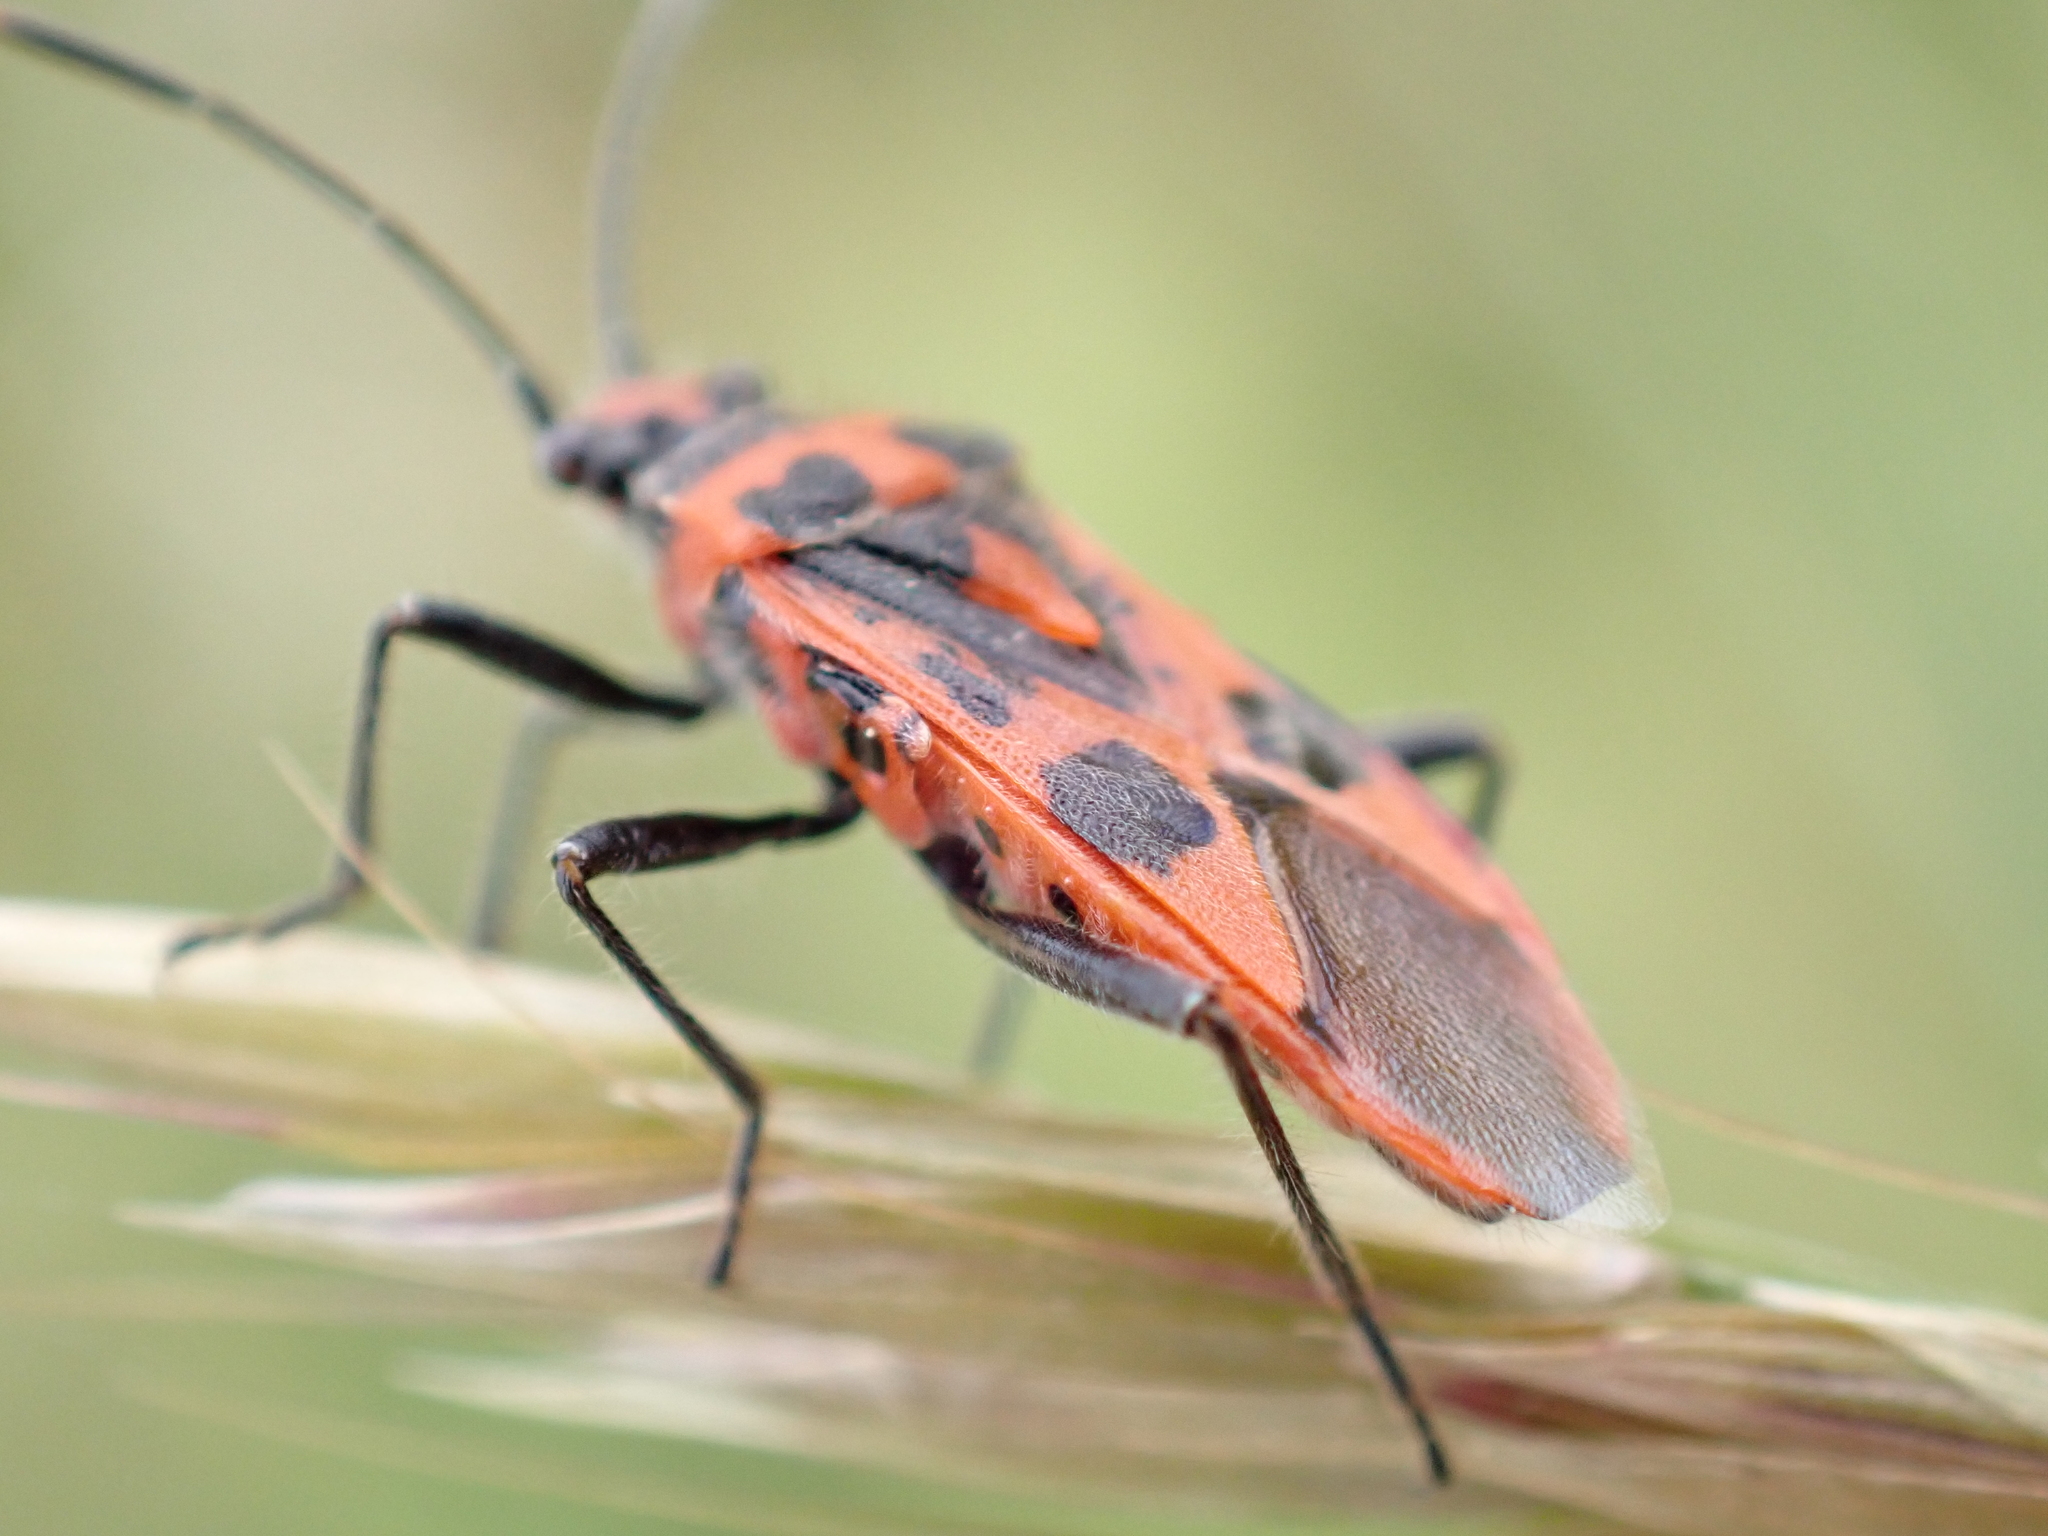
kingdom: Animalia
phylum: Arthropoda
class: Insecta
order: Hemiptera
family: Rhopalidae
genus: Corizus
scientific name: Corizus hyoscyami
